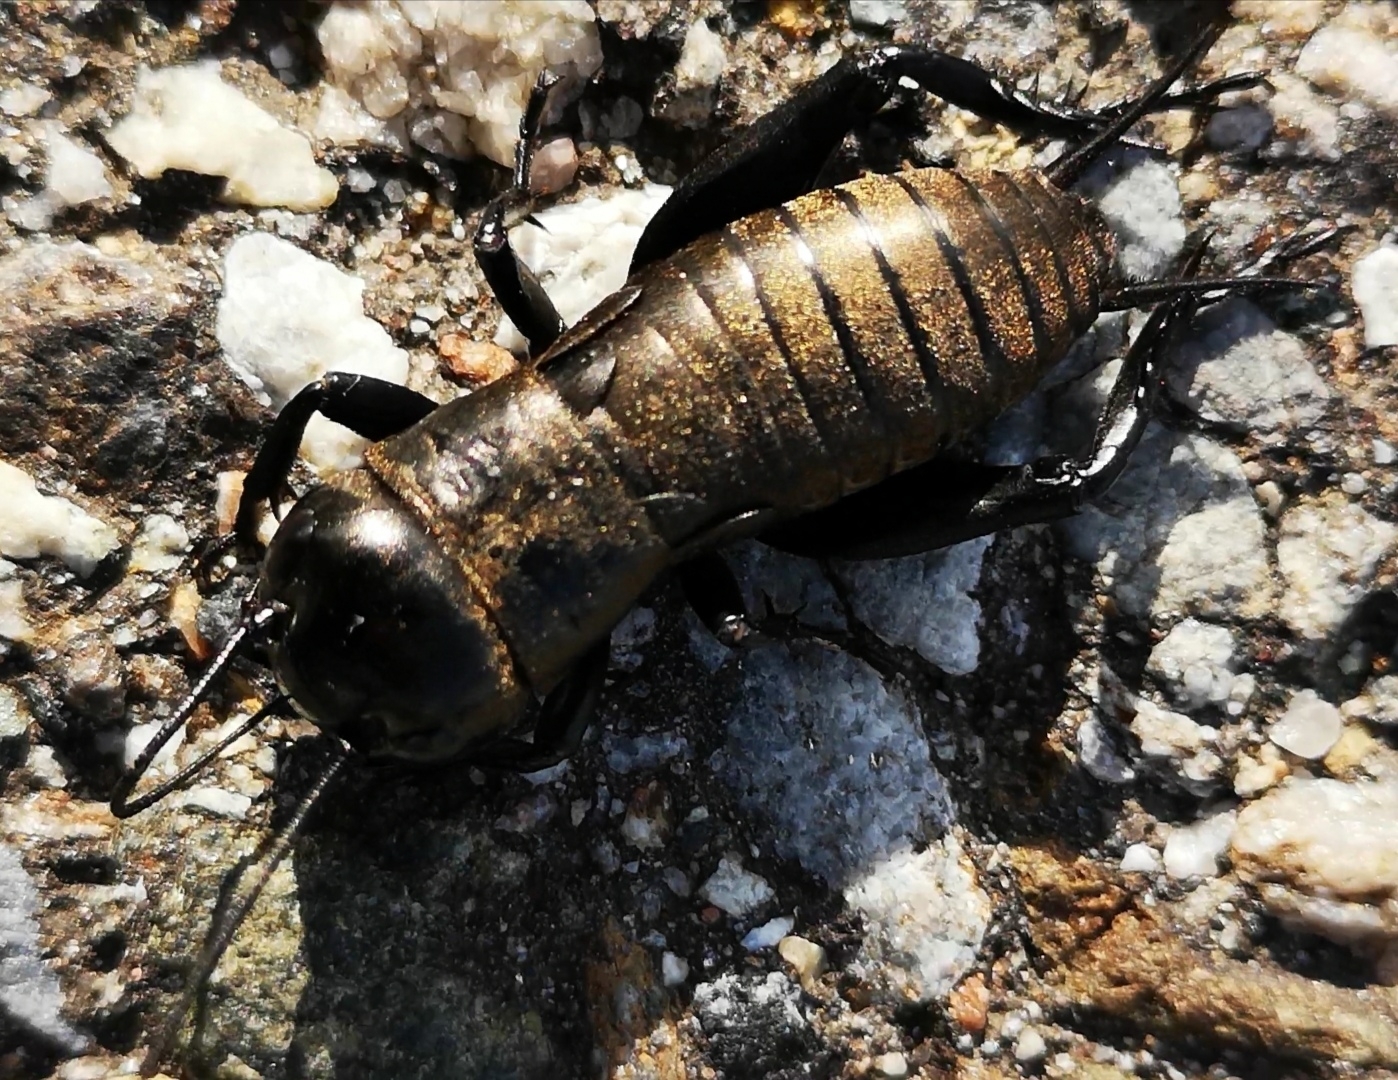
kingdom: Animalia
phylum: Arthropoda
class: Insecta
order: Orthoptera
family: Gryllidae
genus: Gryllus
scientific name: Gryllus campestris
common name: Field cricket
